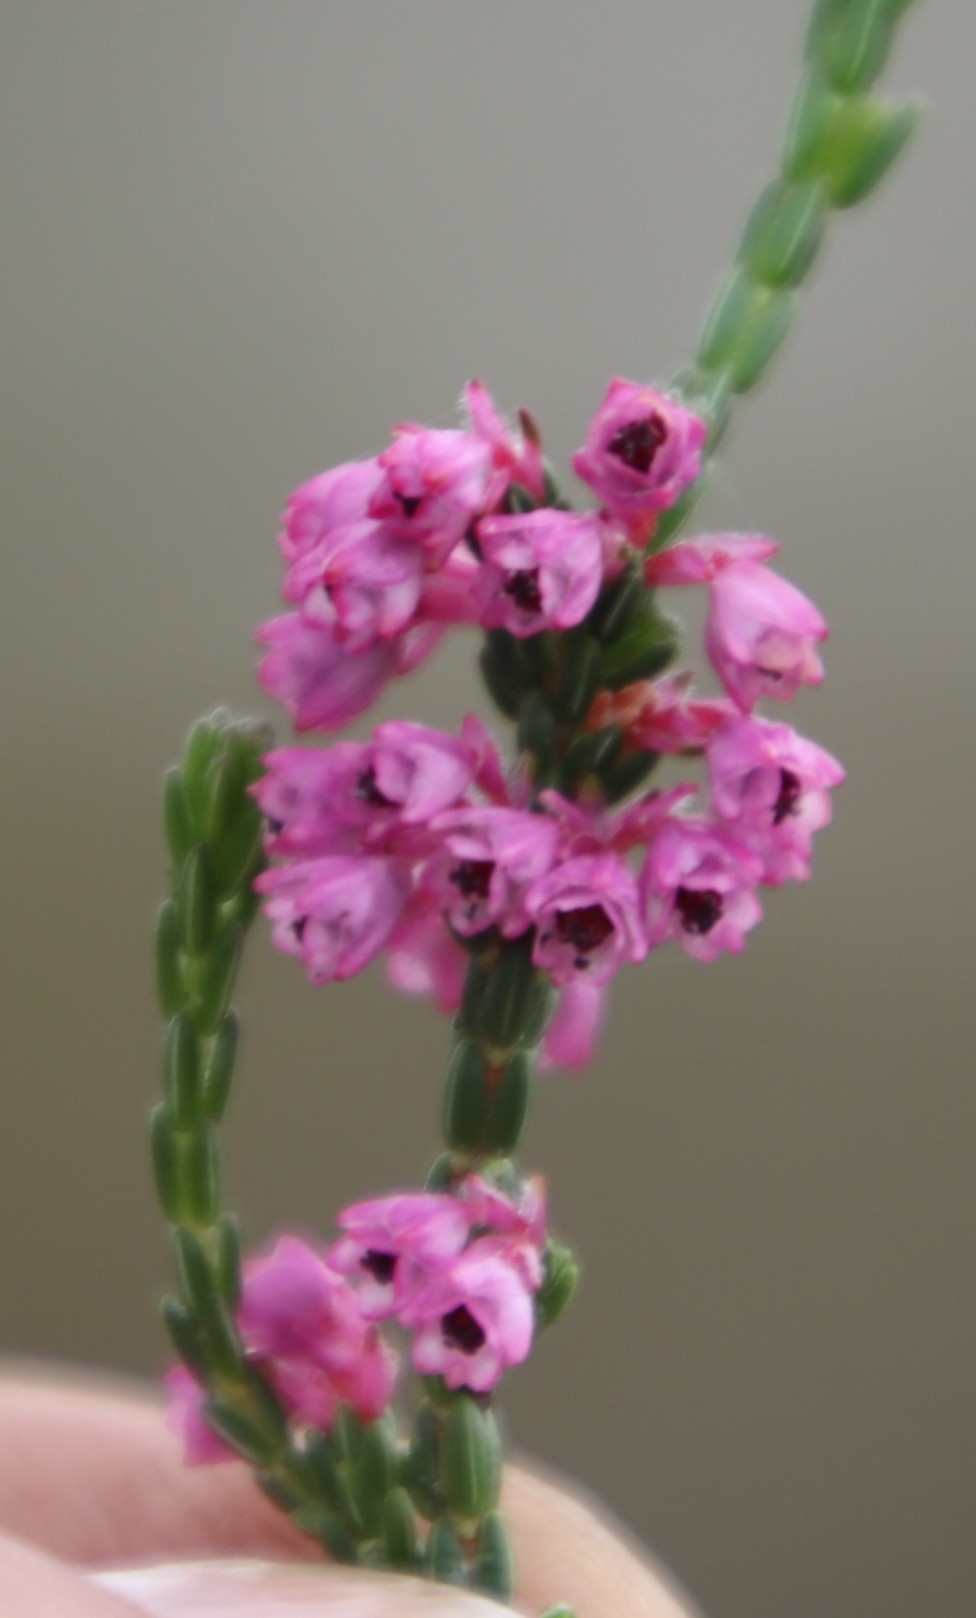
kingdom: Plantae
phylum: Tracheophyta
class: Magnoliopsida
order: Ericales
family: Ericaceae
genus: Erica
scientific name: Erica gnaphaloides
